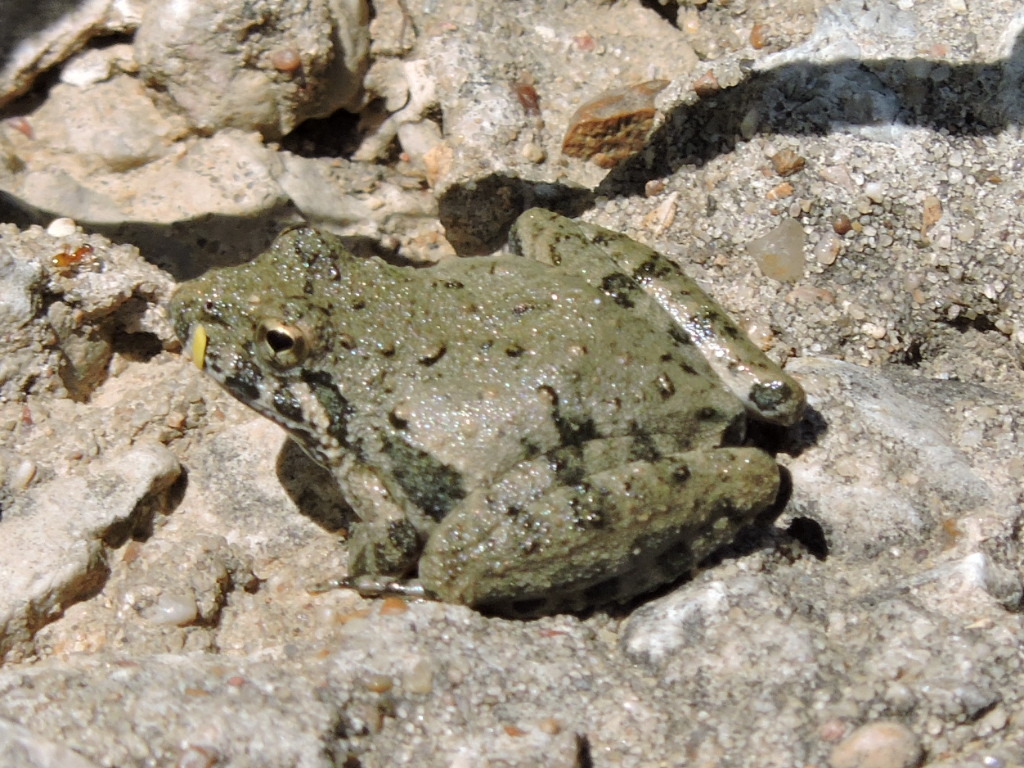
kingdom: Animalia
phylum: Chordata
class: Amphibia
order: Anura
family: Hylidae
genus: Acris
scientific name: Acris blanchardi
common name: Blanchard's cricket frog
